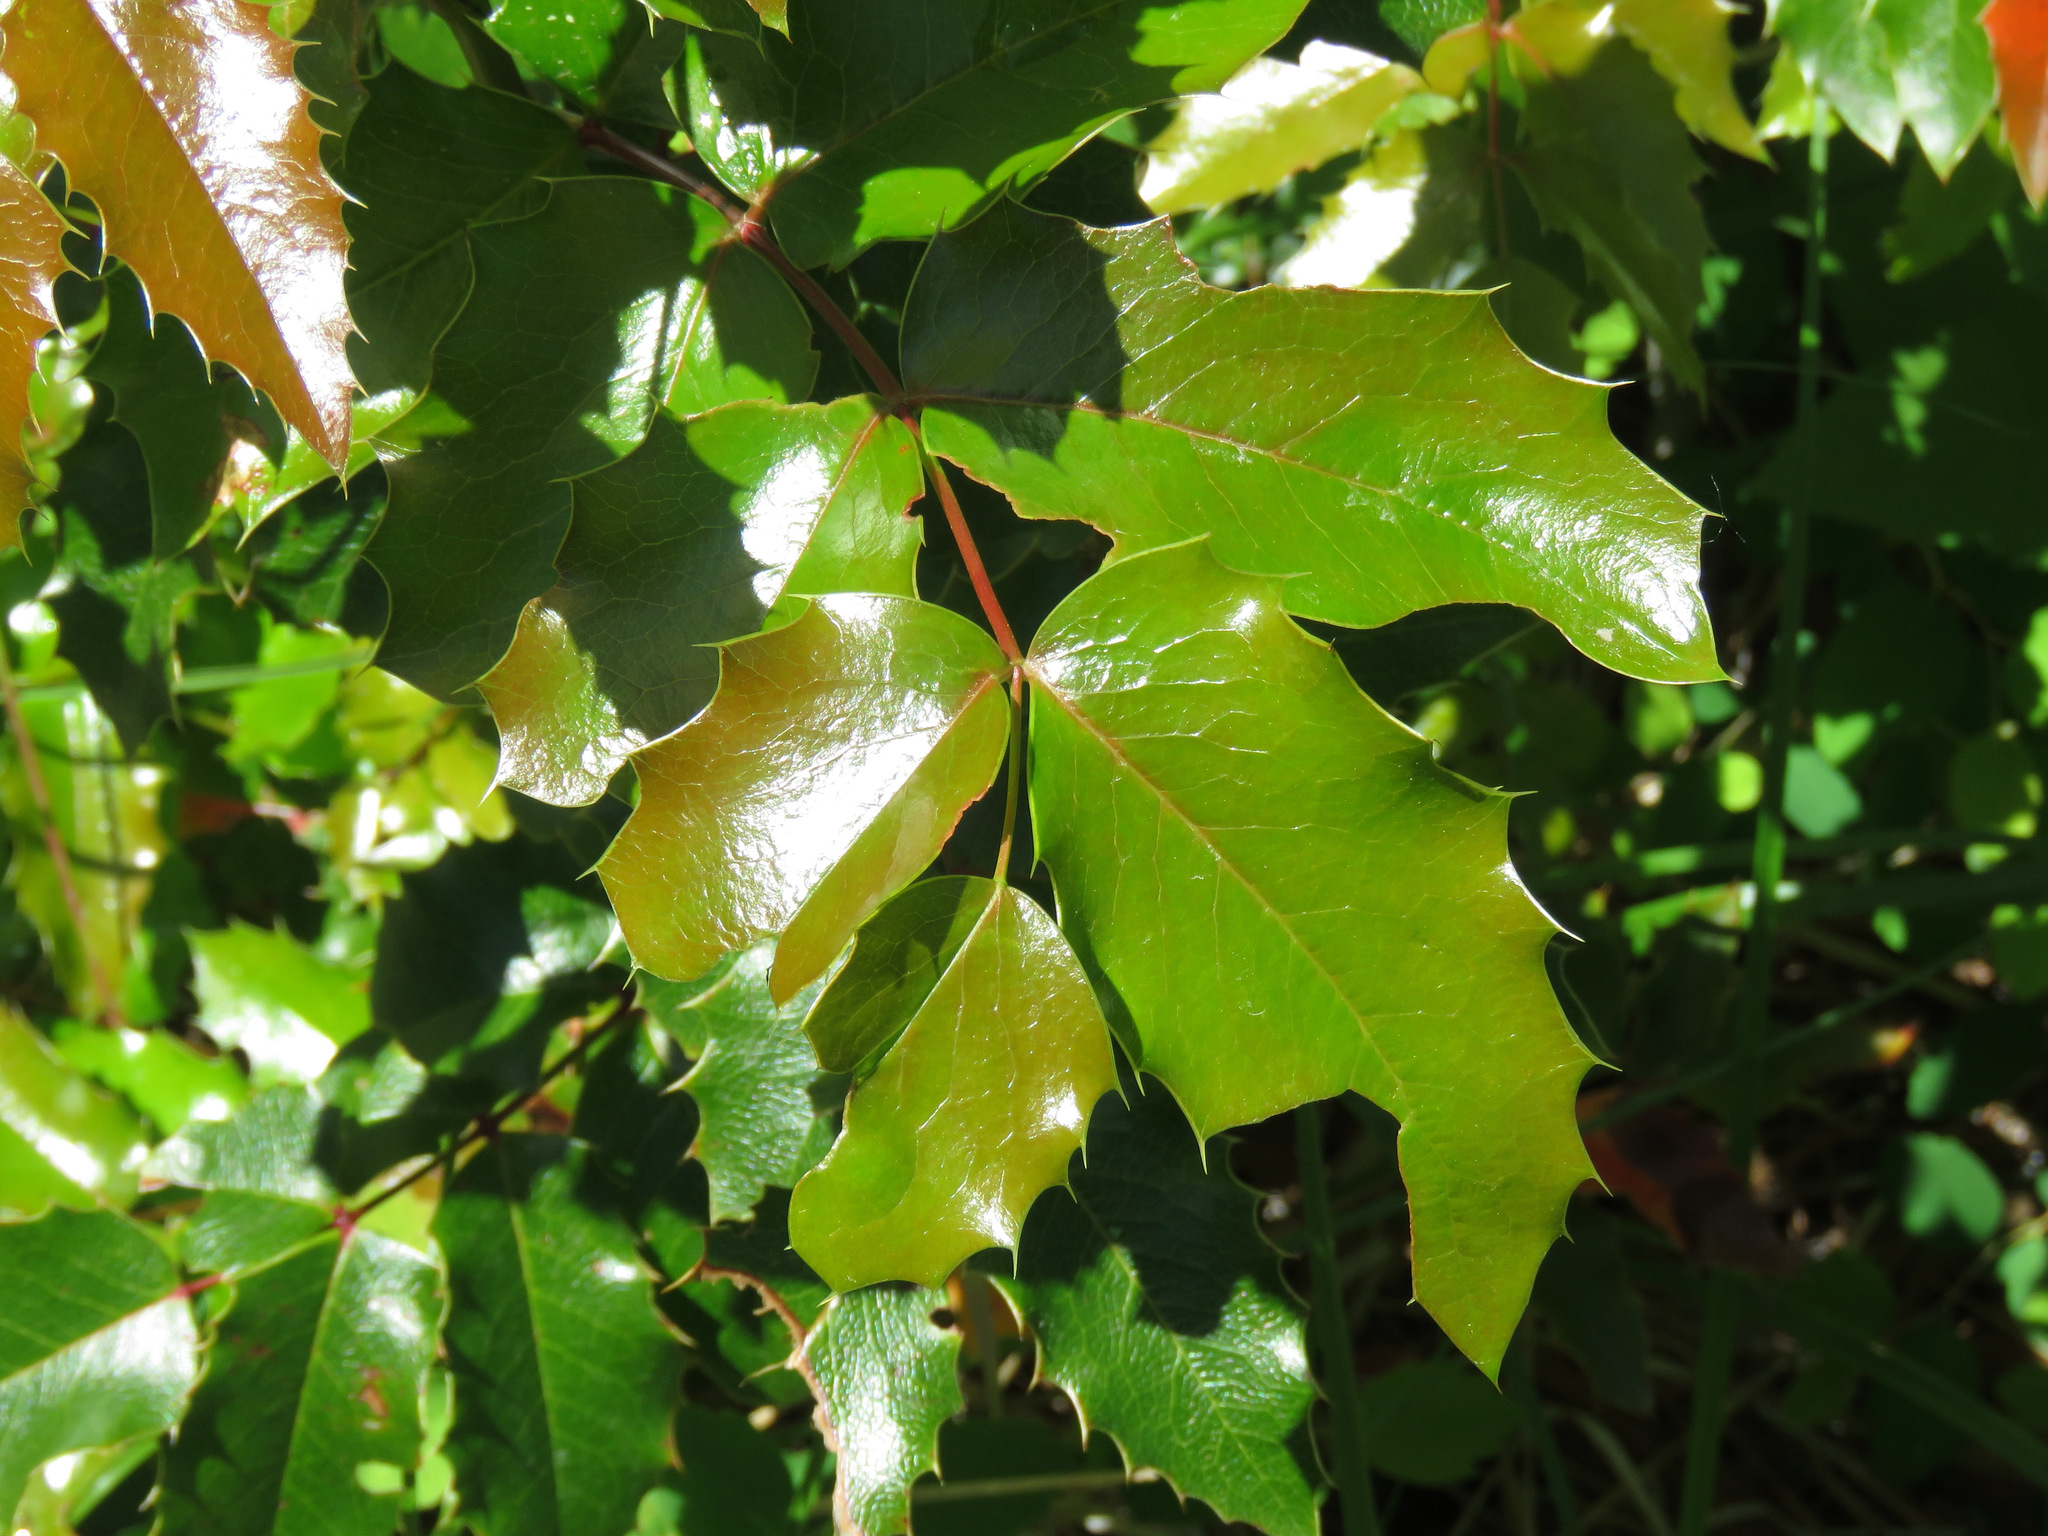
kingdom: Plantae
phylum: Tracheophyta
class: Magnoliopsida
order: Ranunculales
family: Berberidaceae
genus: Mahonia
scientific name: Mahonia aquifolium
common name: Oregon-grape
